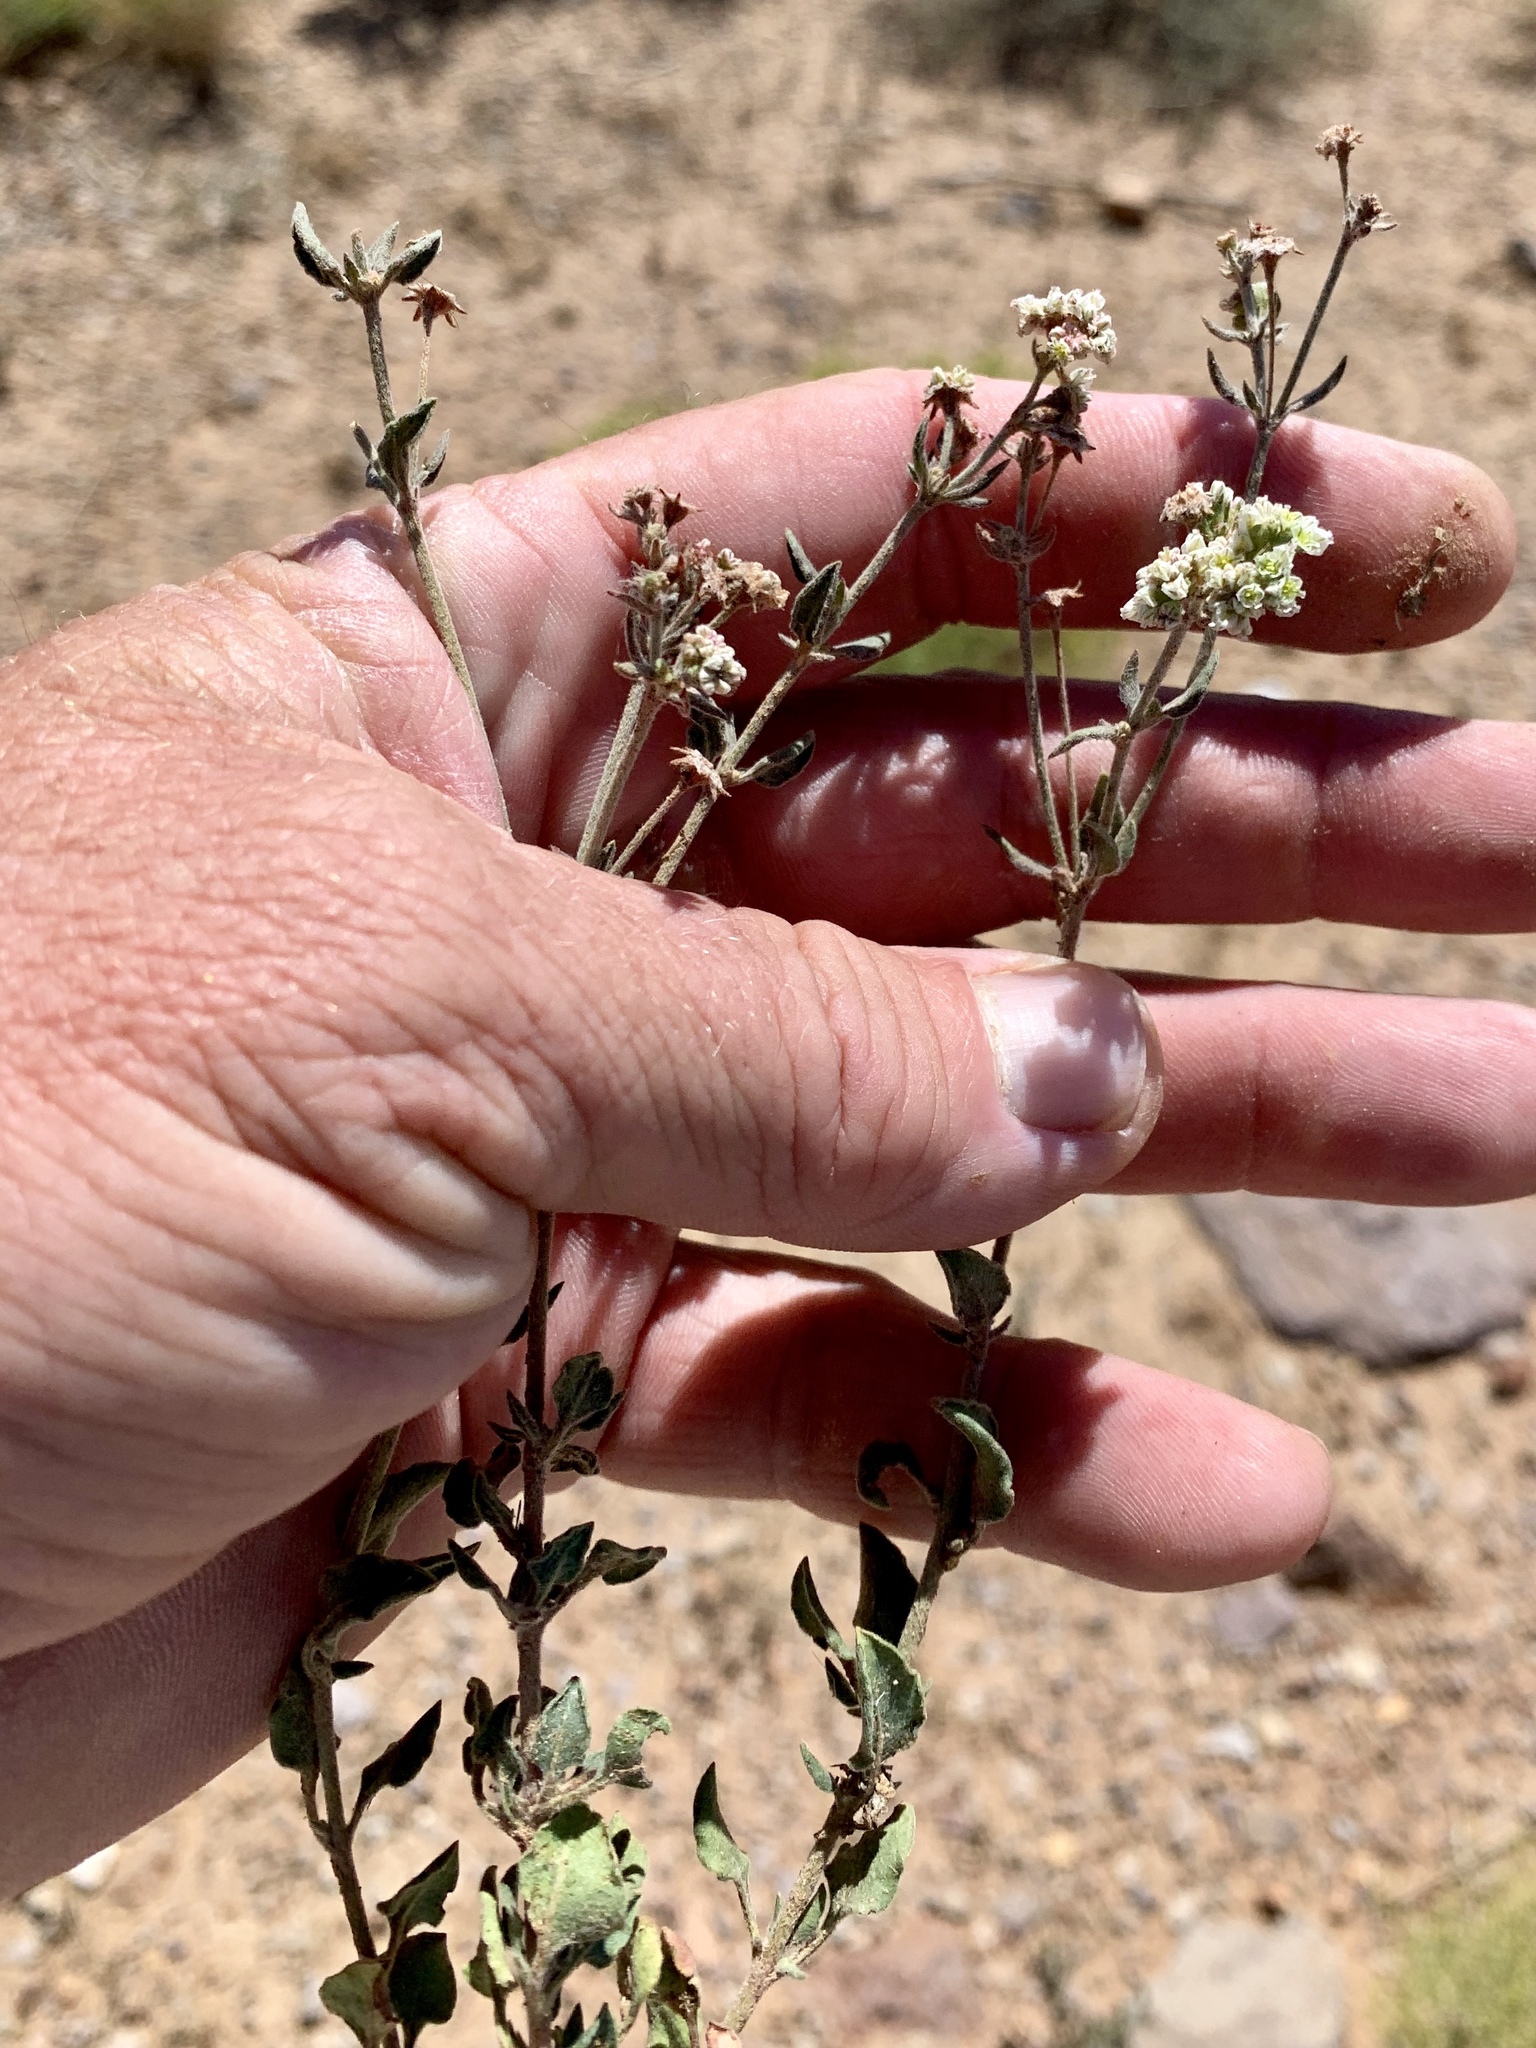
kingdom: Plantae
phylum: Tracheophyta
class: Magnoliopsida
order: Caryophyllales
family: Polygonaceae
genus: Eriogonum
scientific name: Eriogonum abertianum
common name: Abert's wild buckwheat
